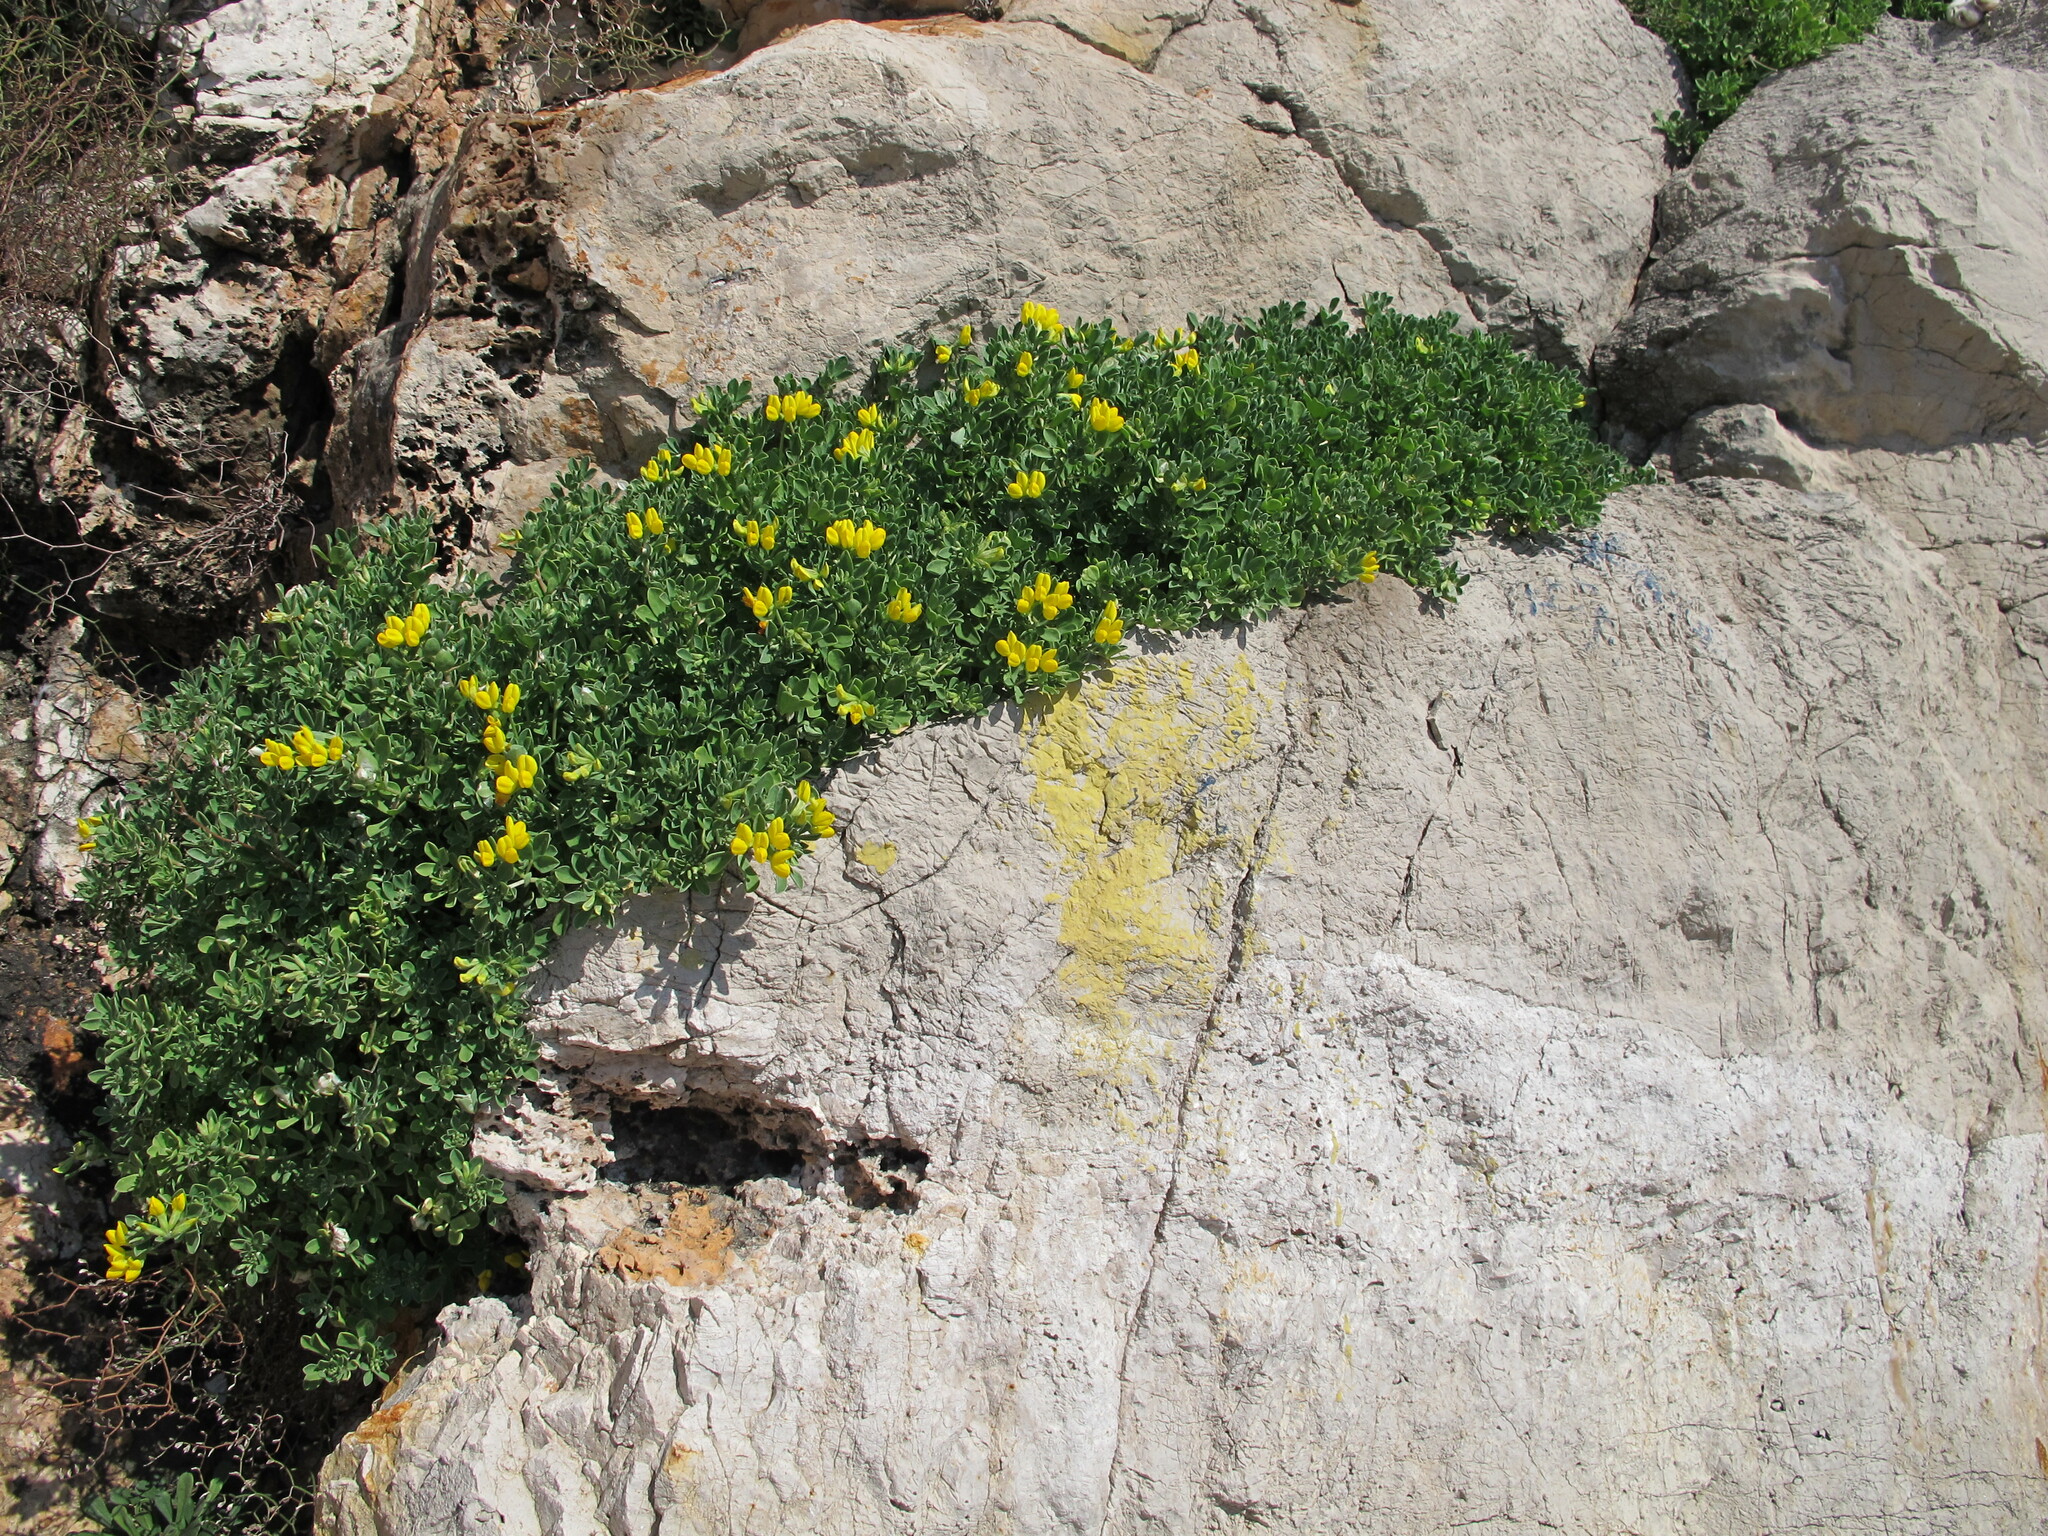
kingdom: Plantae
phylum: Tracheophyta
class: Magnoliopsida
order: Fabales
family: Fabaceae
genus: Lotus
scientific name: Lotus cytisoides
